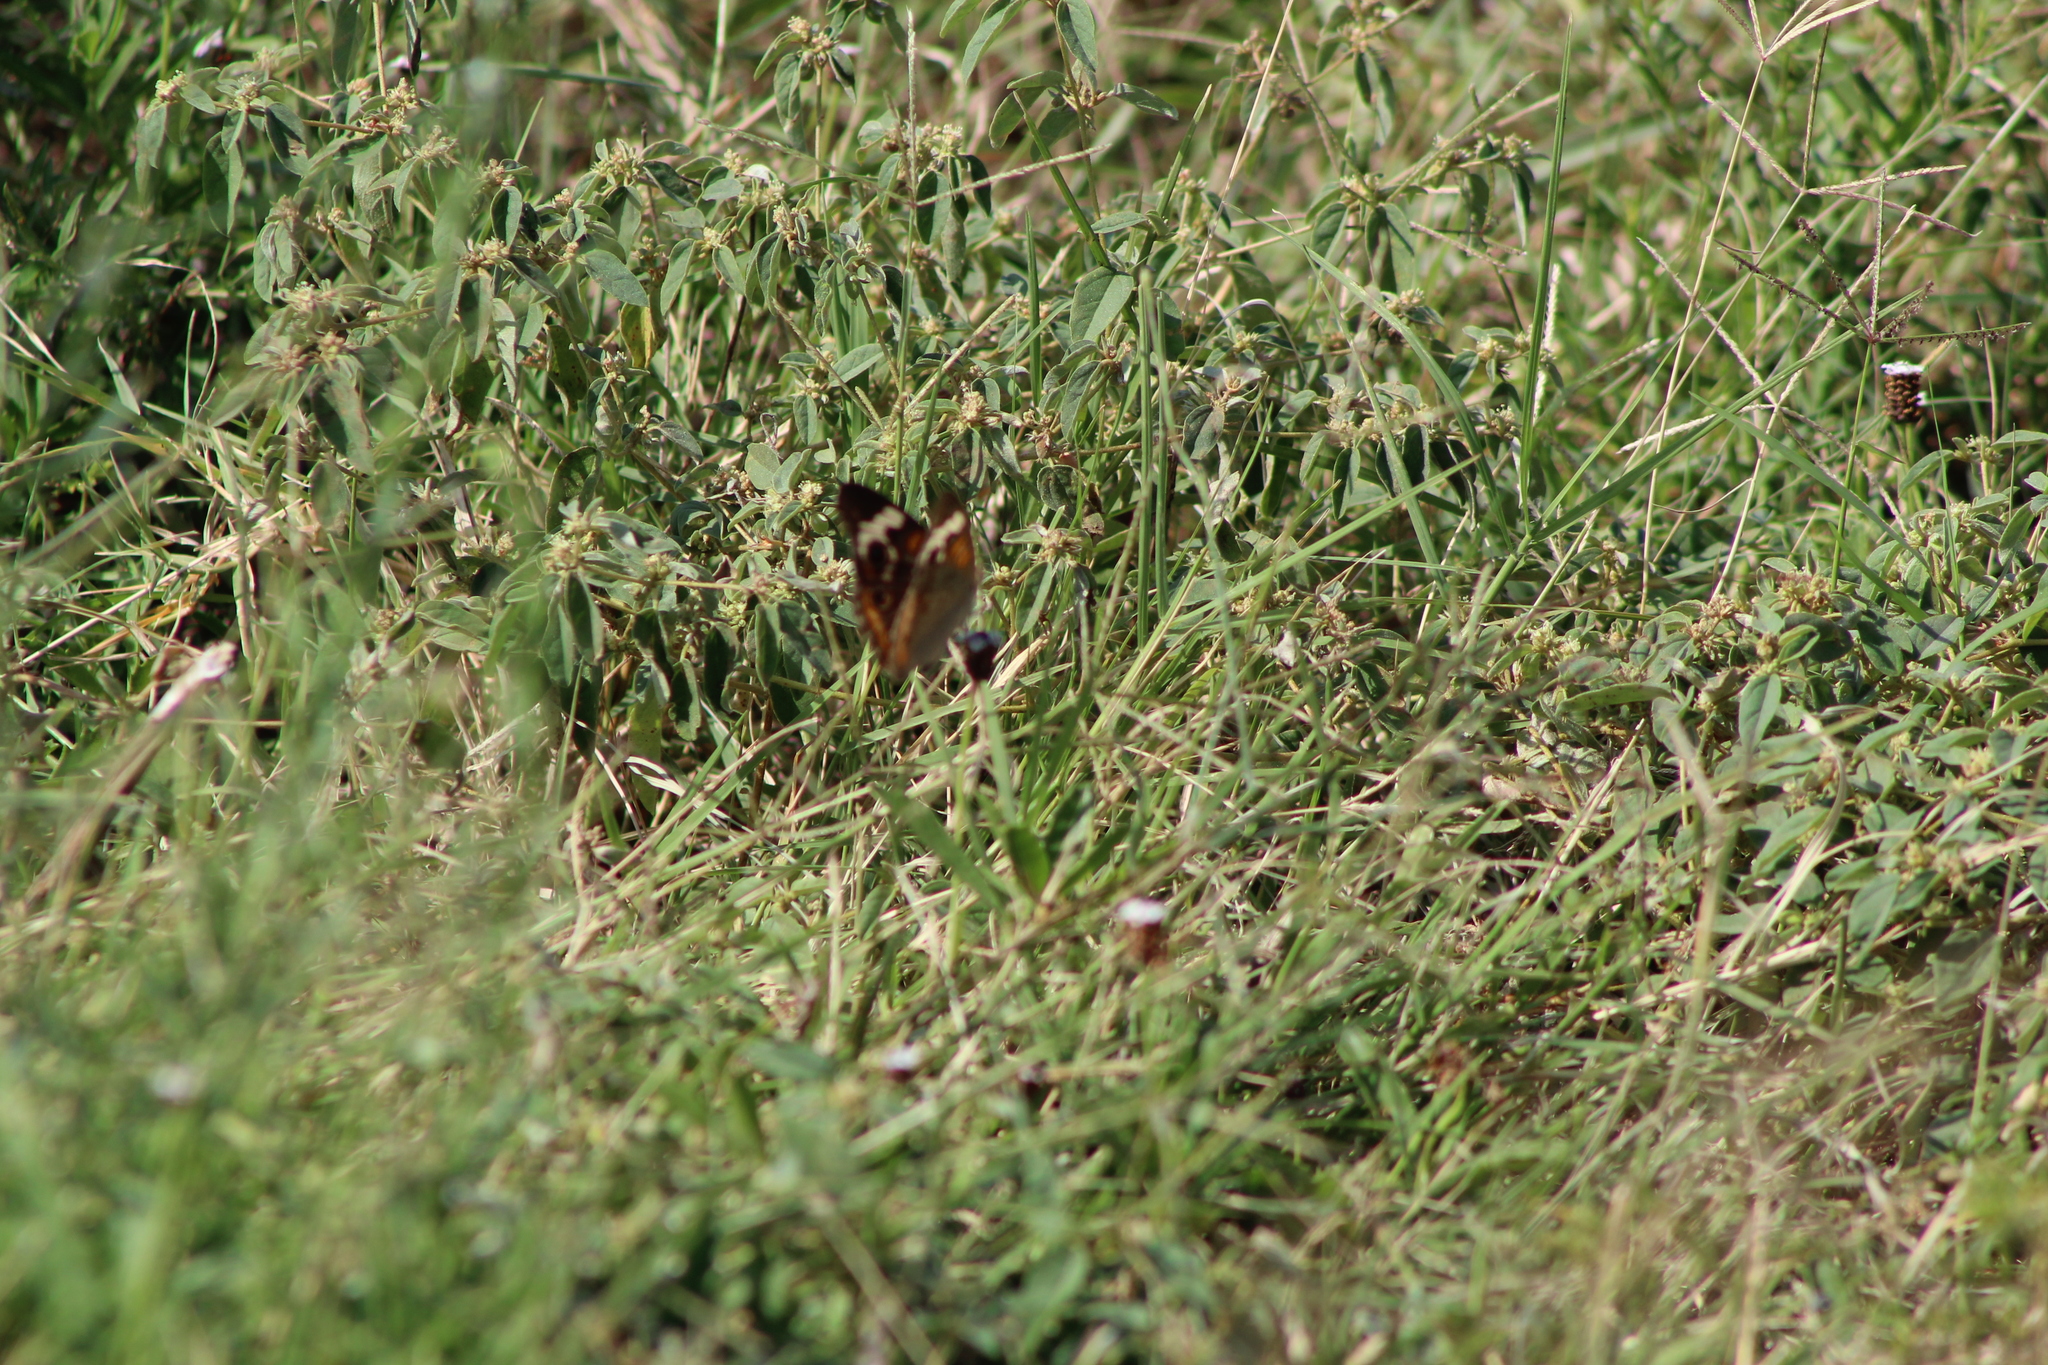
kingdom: Animalia
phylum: Arthropoda
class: Insecta
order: Lepidoptera
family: Nymphalidae
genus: Junonia
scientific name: Junonia coenia
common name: Common buckeye
